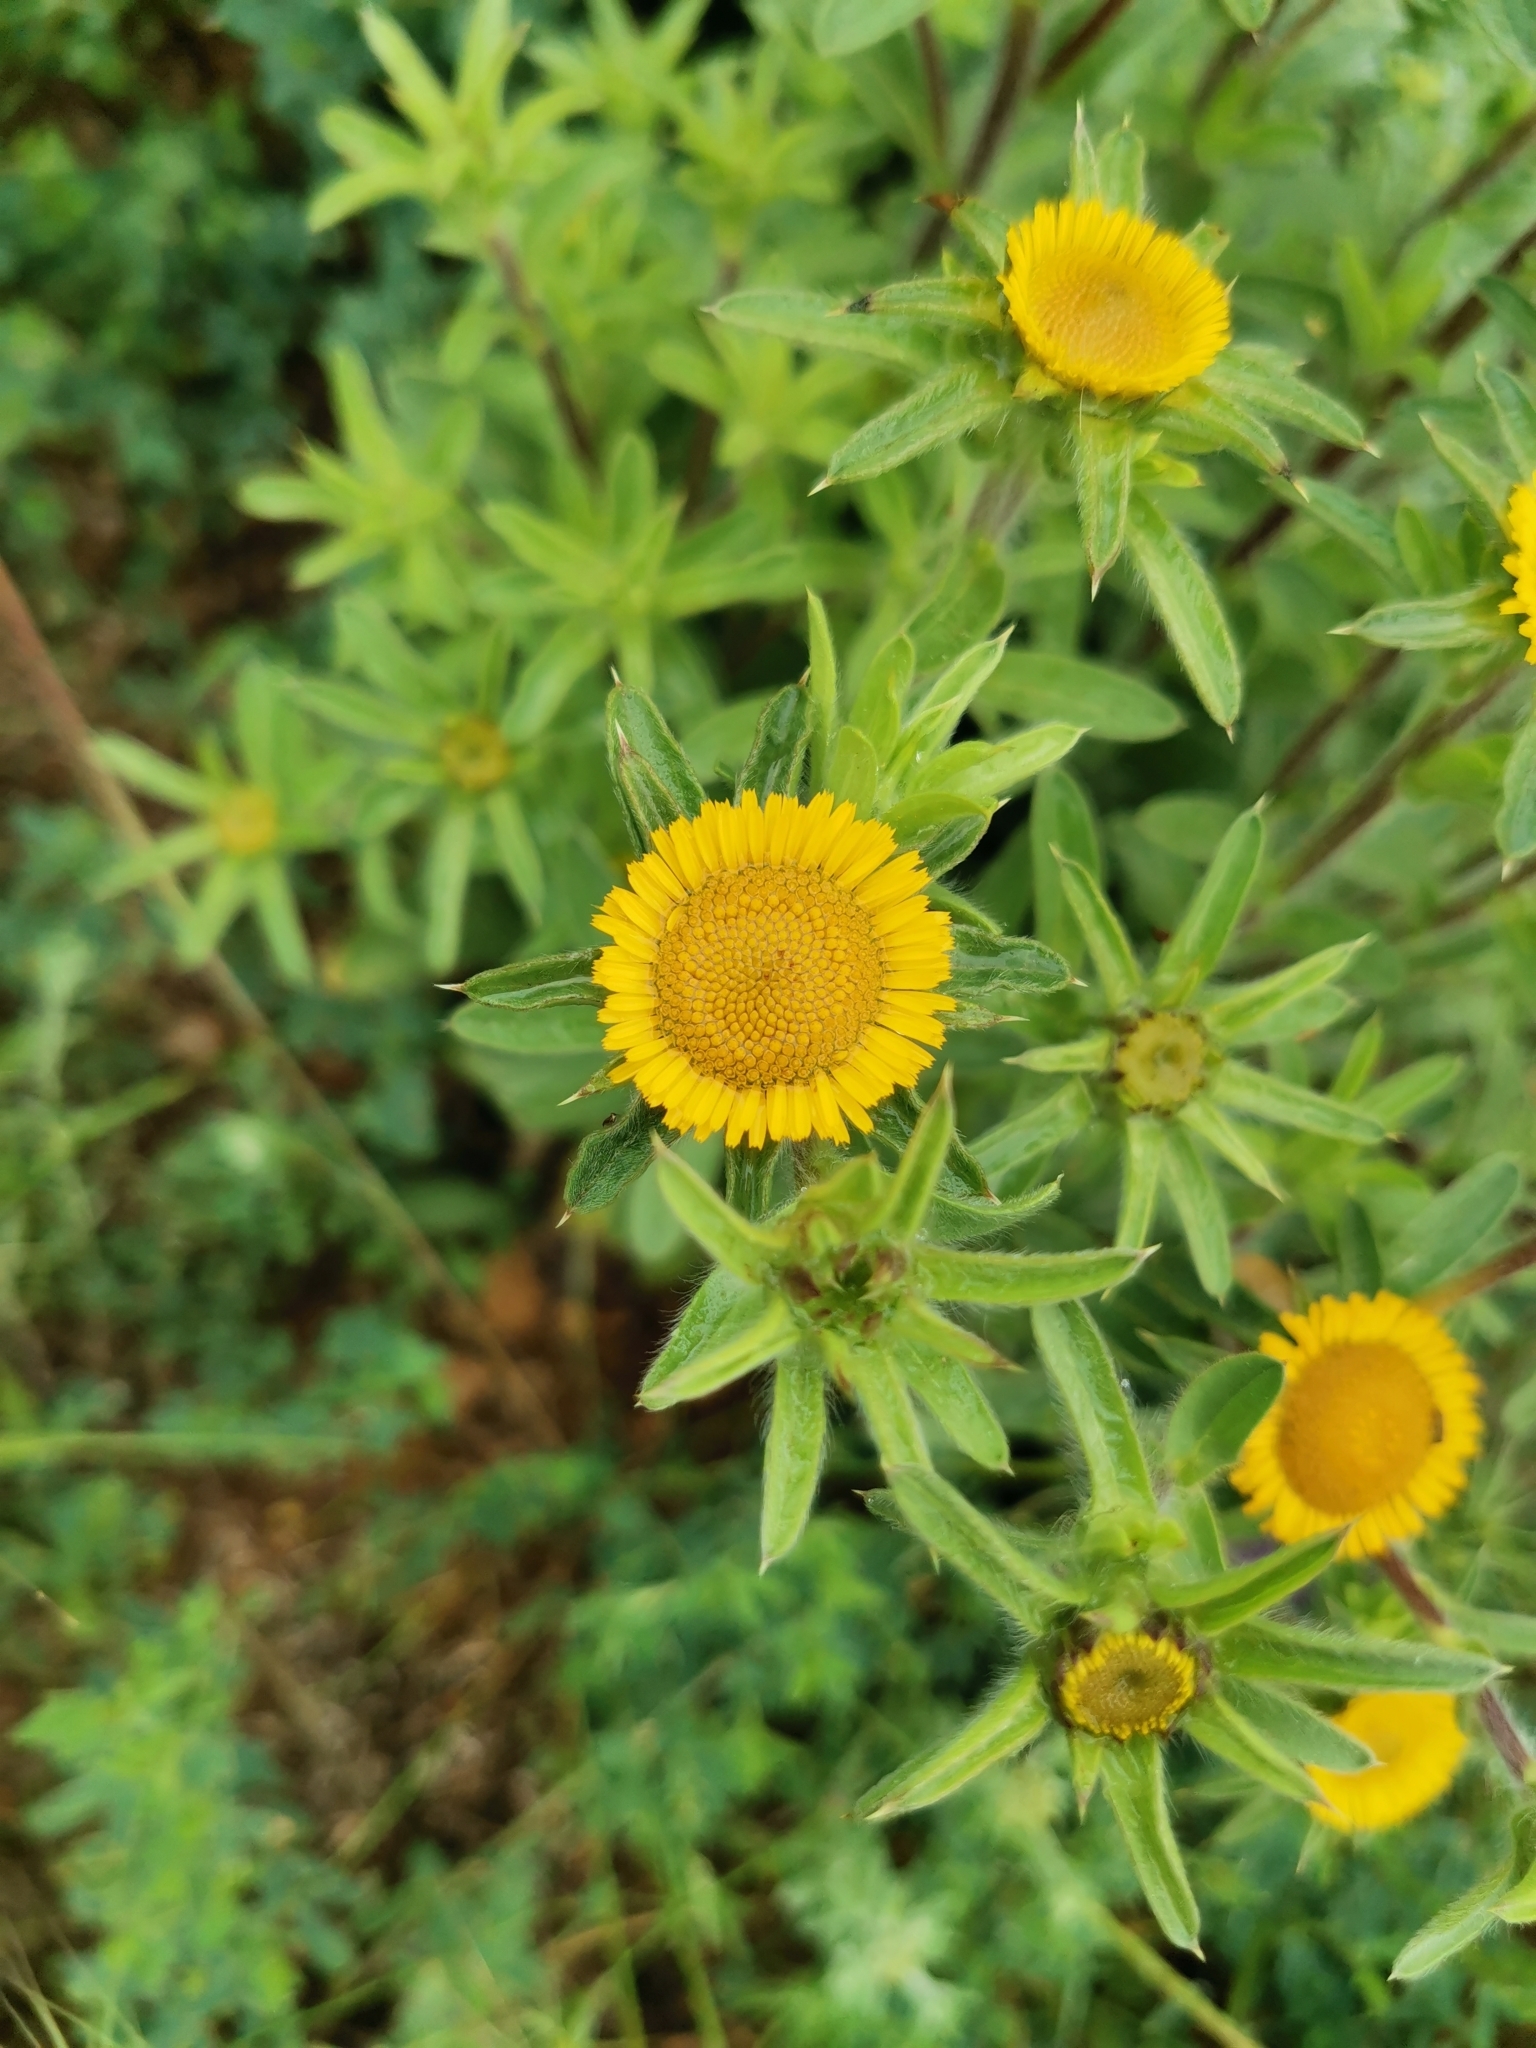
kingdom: Plantae
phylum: Tracheophyta
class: Magnoliopsida
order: Asterales
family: Asteraceae
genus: Pallenis
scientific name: Pallenis spinosa
